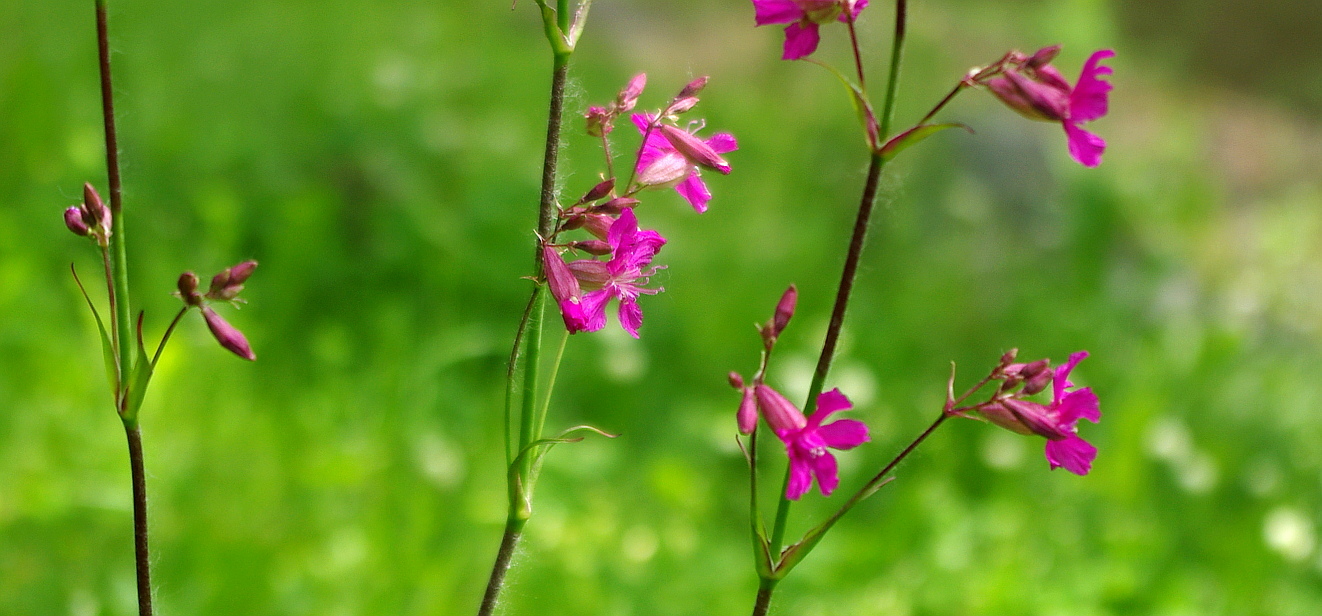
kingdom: Plantae
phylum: Tracheophyta
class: Magnoliopsida
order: Caryophyllales
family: Caryophyllaceae
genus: Viscaria
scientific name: Viscaria vulgaris
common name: Clammy campion
